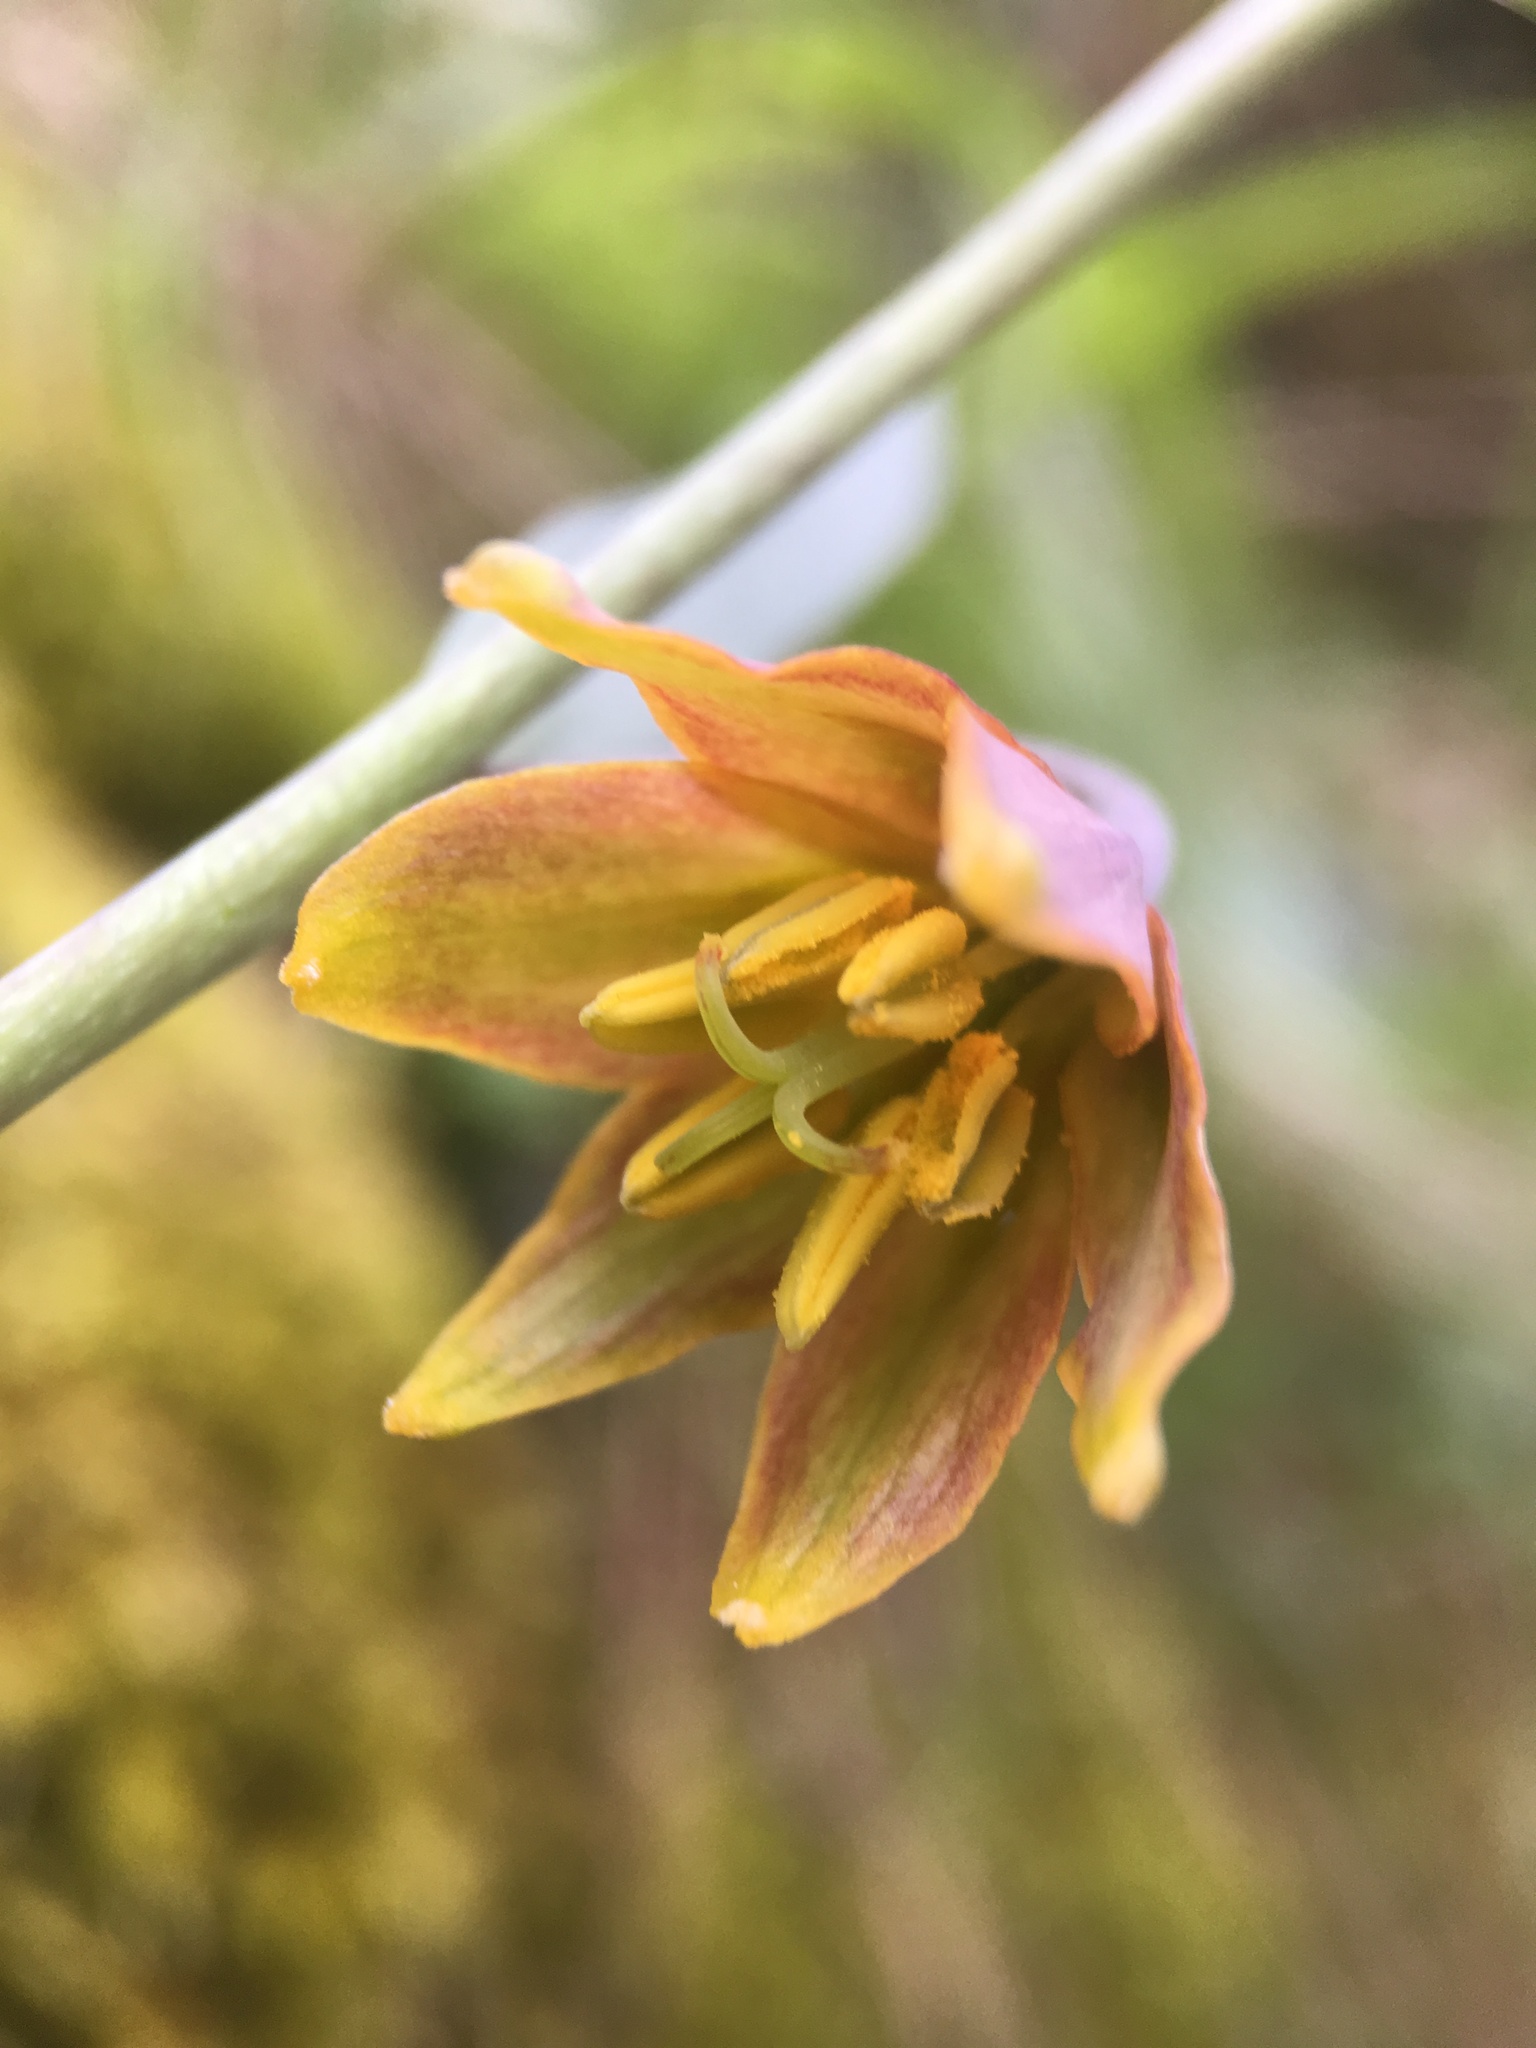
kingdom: Plantae
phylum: Tracheophyta
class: Liliopsida
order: Liliales
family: Liliaceae
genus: Fritillaria
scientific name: Fritillaria eastwoodiae
